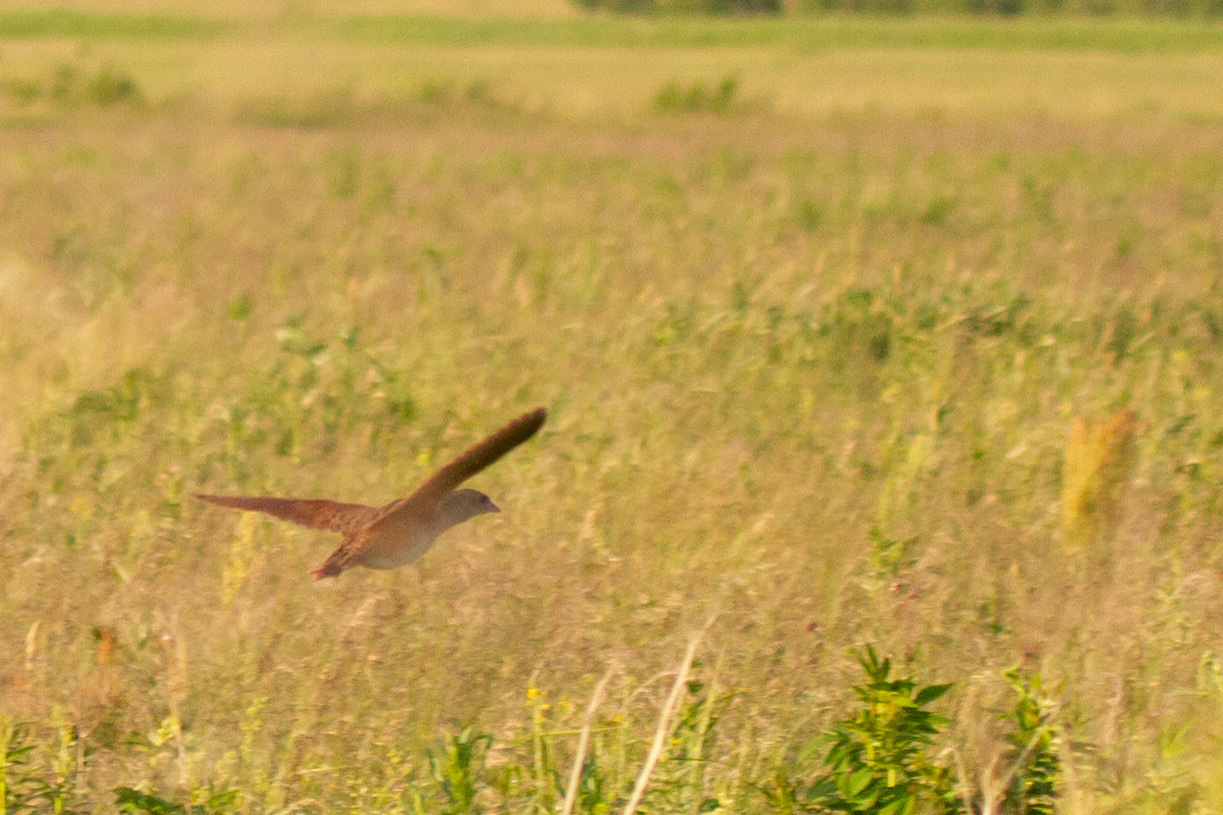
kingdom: Animalia
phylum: Chordata
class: Aves
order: Gruiformes
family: Rallidae
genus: Crex
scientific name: Crex crex
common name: Corn crake
